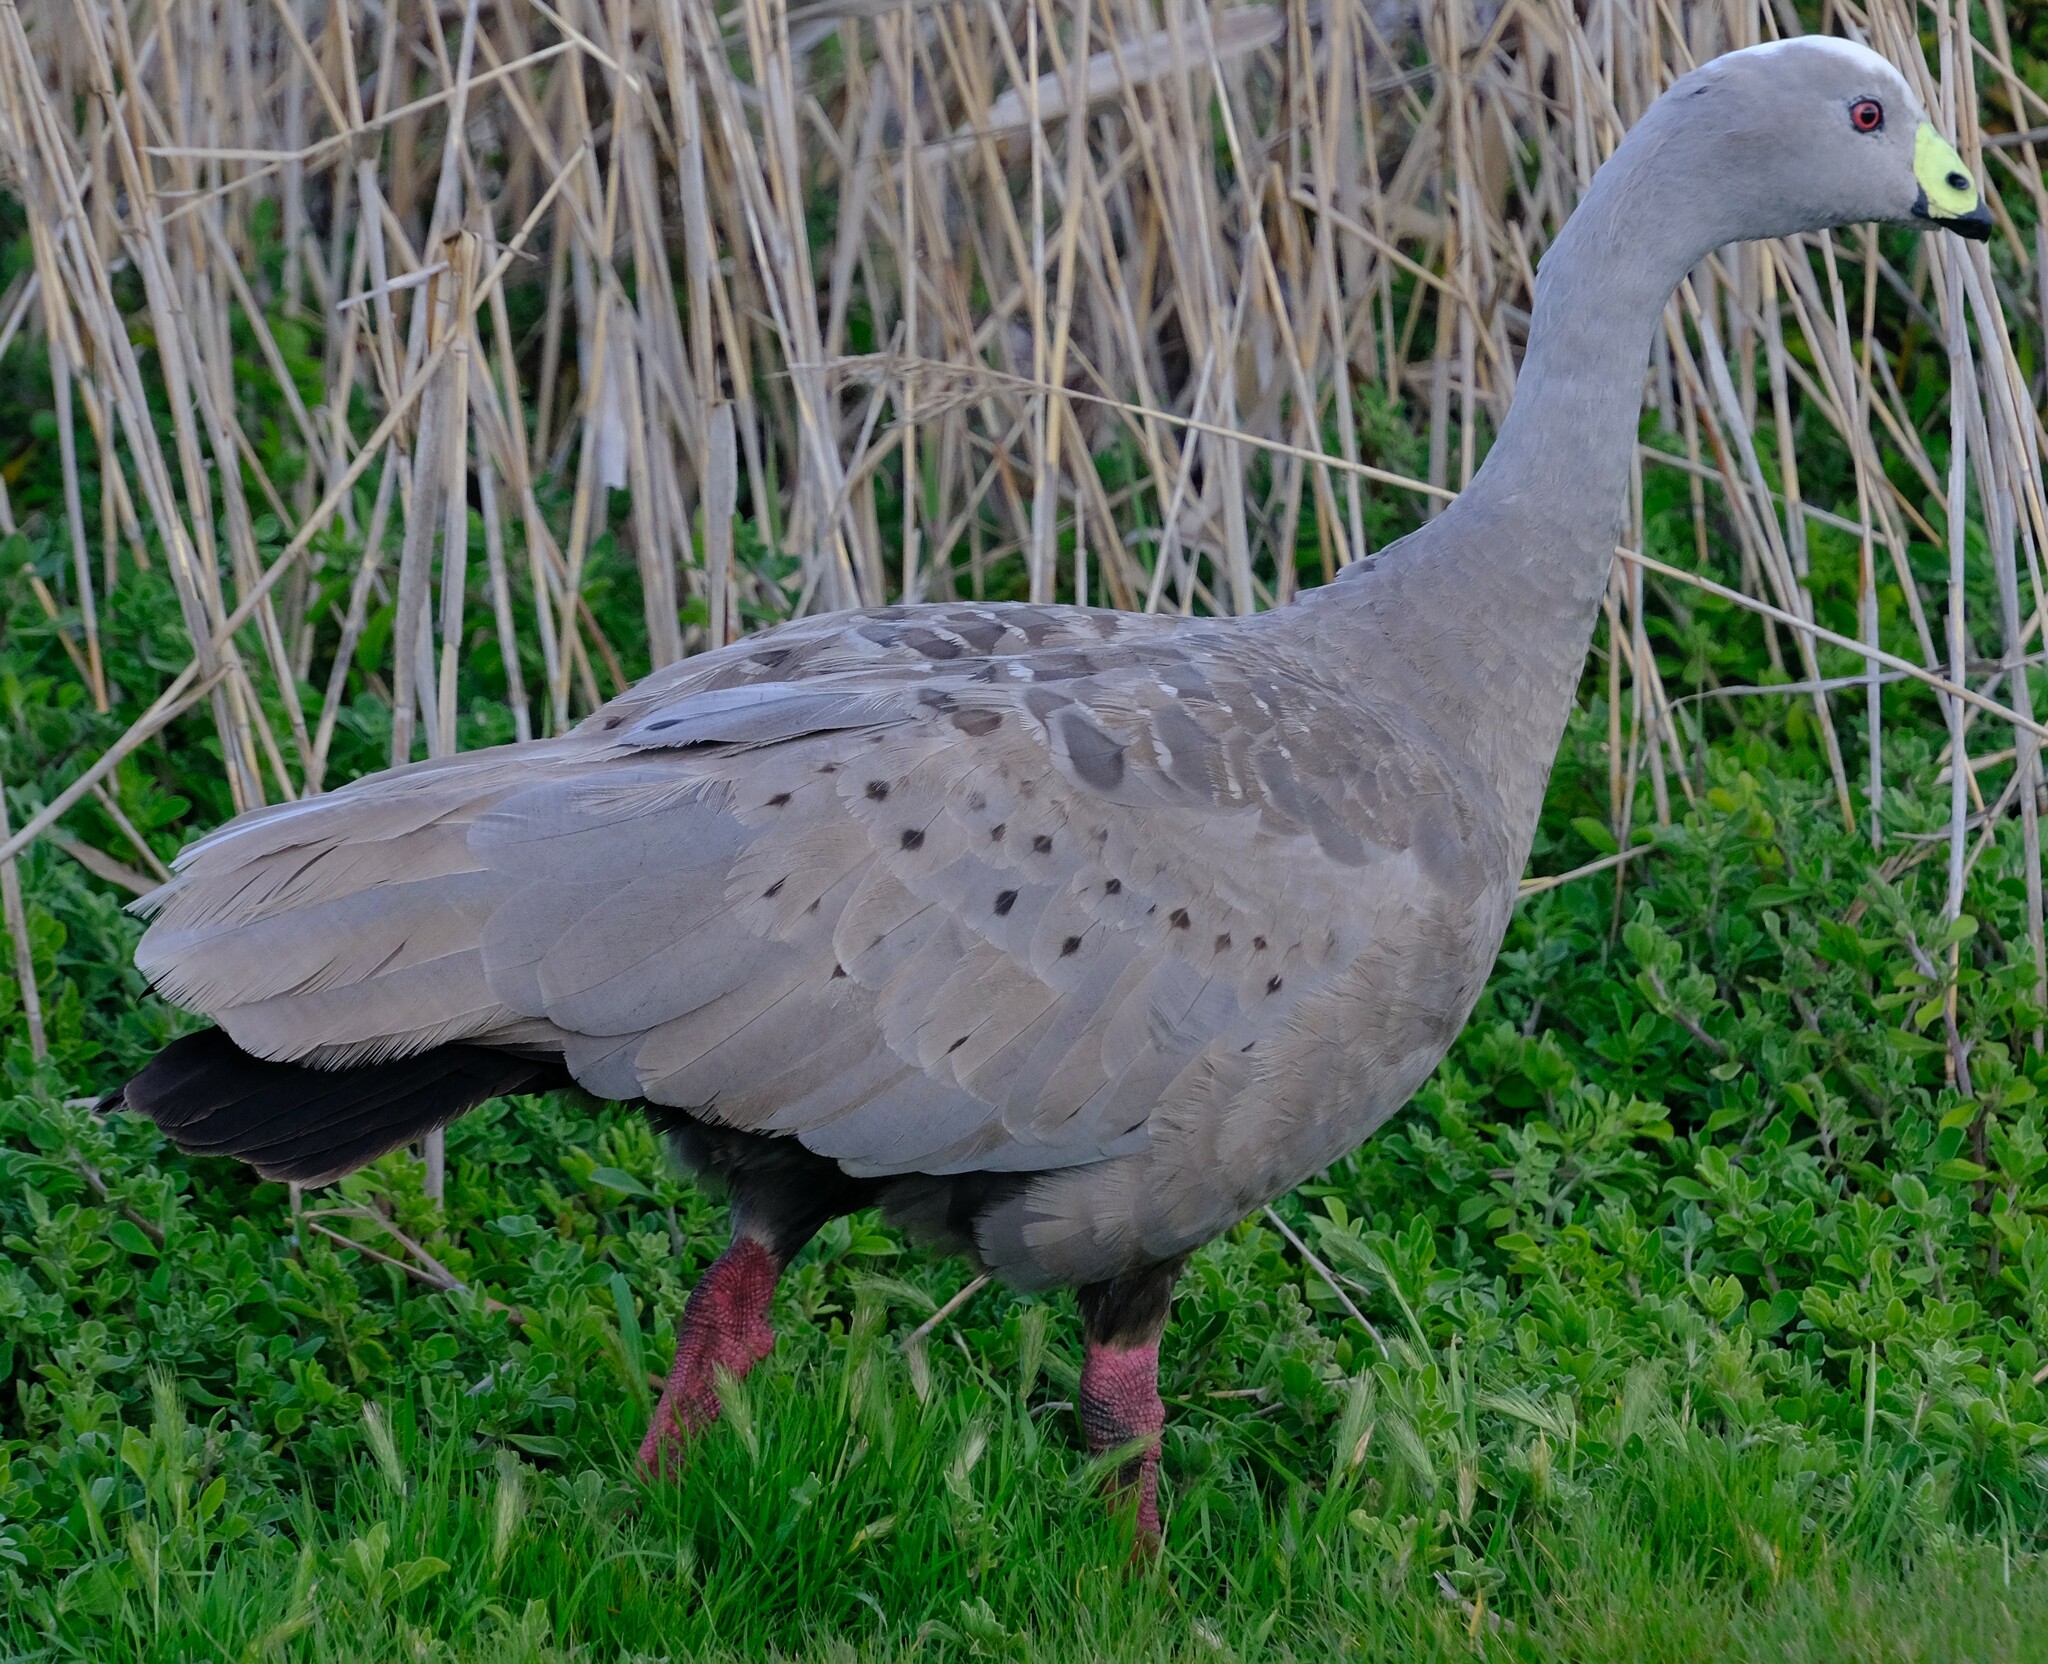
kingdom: Animalia
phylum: Chordata
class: Aves
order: Anseriformes
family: Anatidae
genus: Cereopsis
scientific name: Cereopsis novaehollandiae
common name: Cape barren goose
